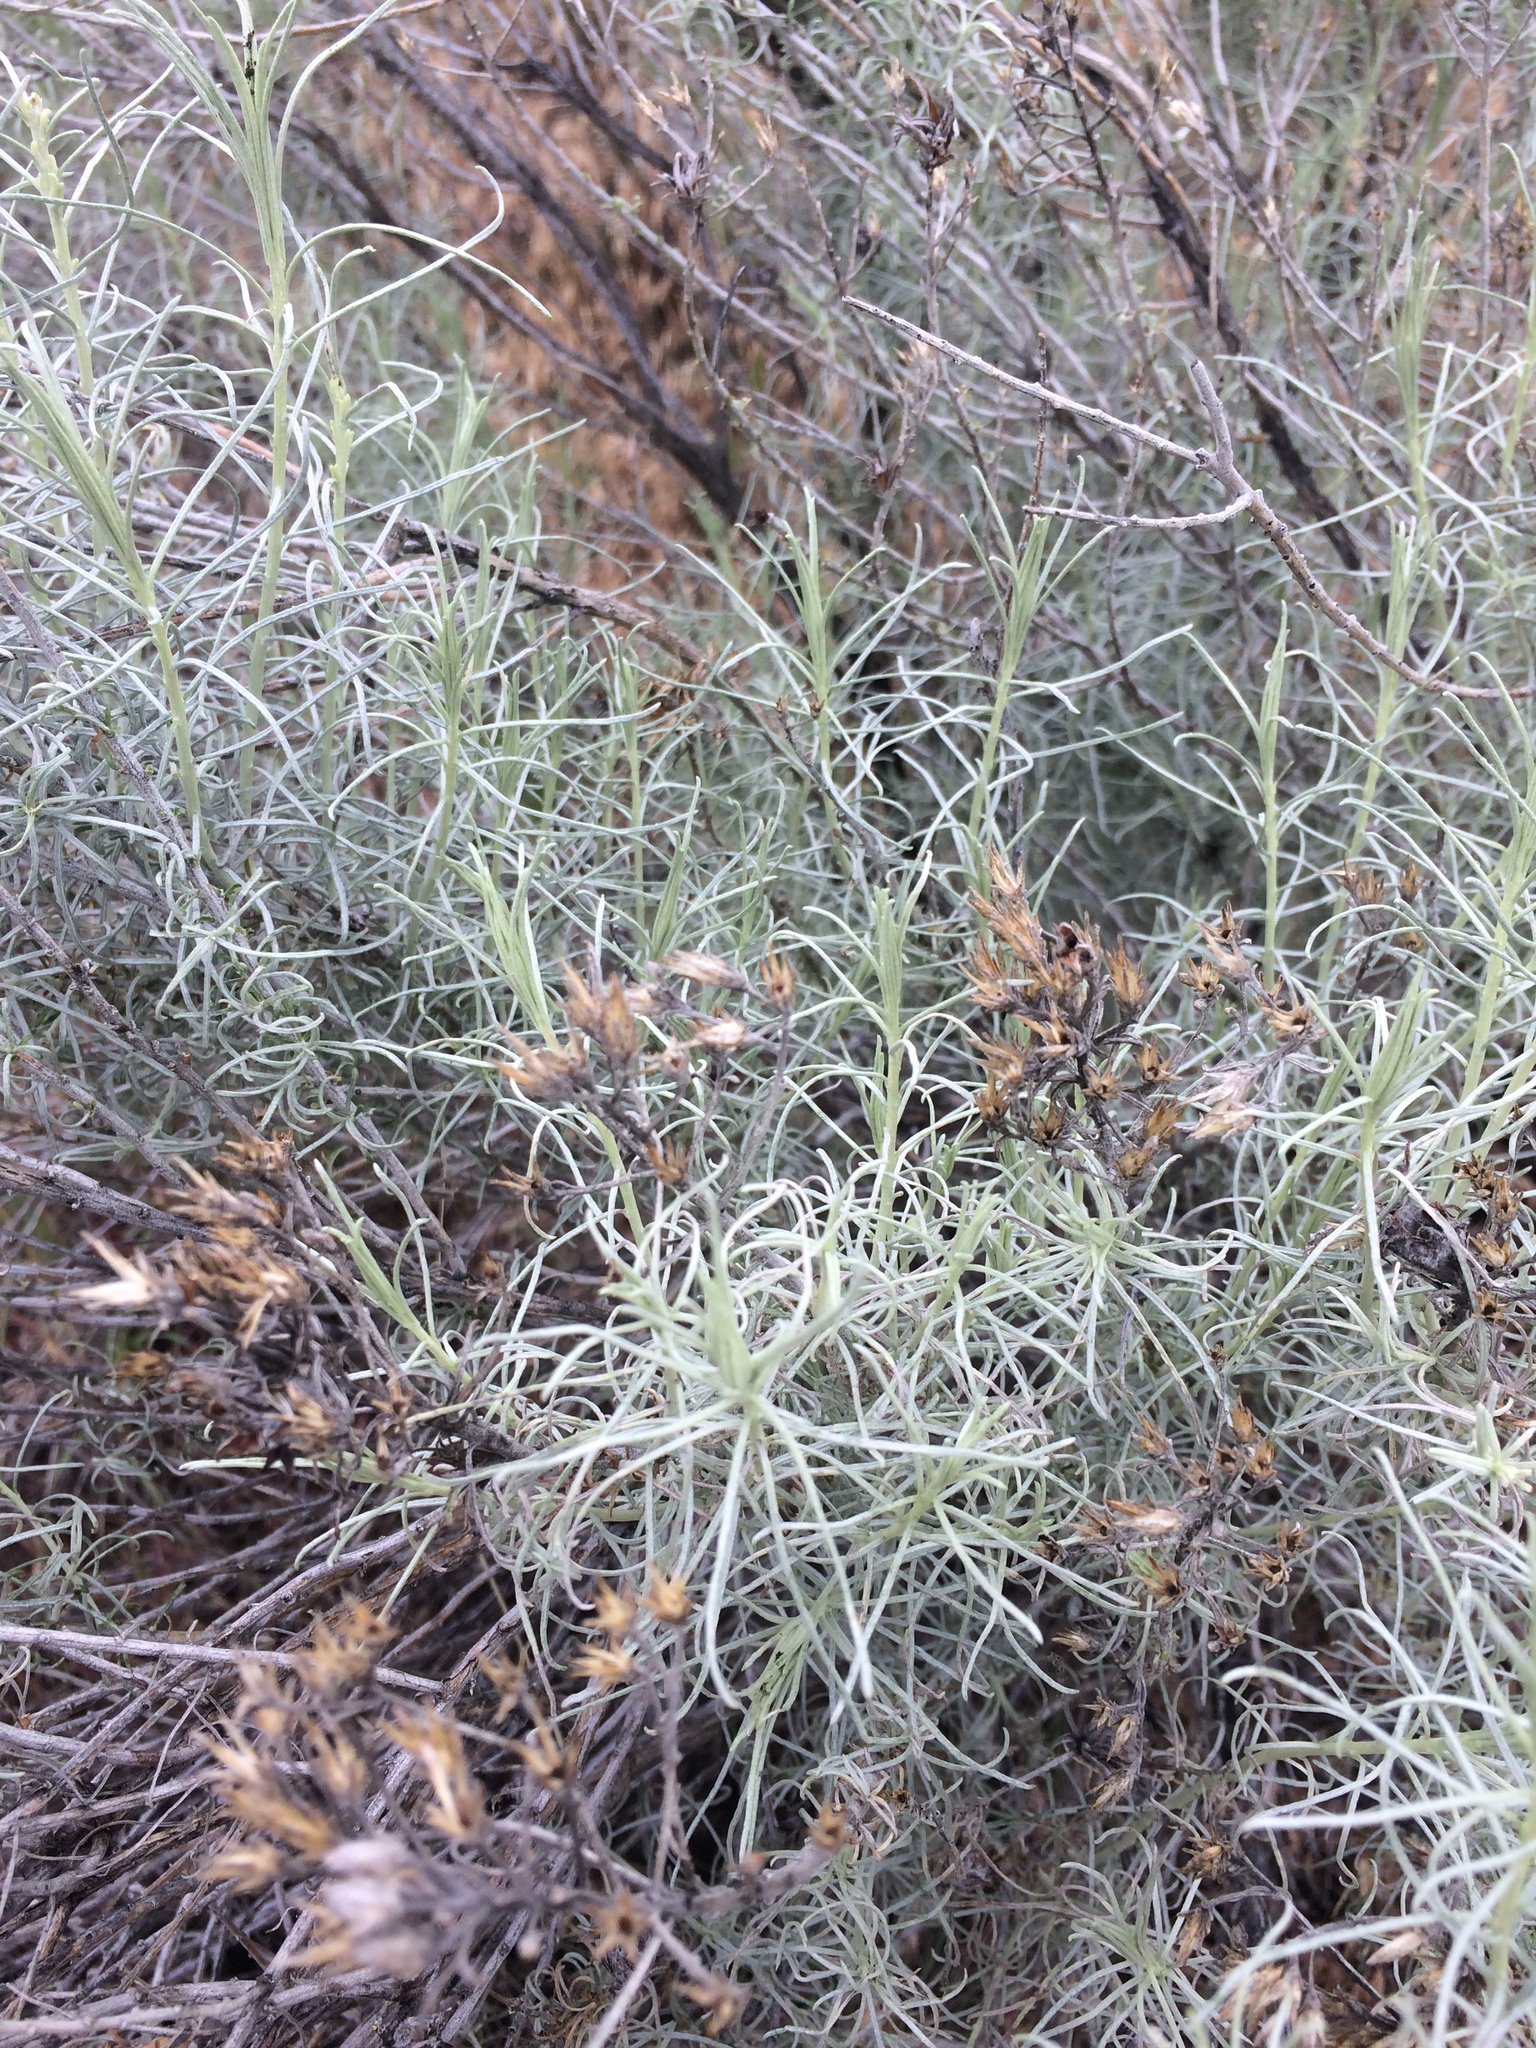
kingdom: Plantae
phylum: Tracheophyta
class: Magnoliopsida
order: Asterales
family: Asteraceae
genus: Ericameria
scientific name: Ericameria nauseosa
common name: Rubber rabbitbrush
